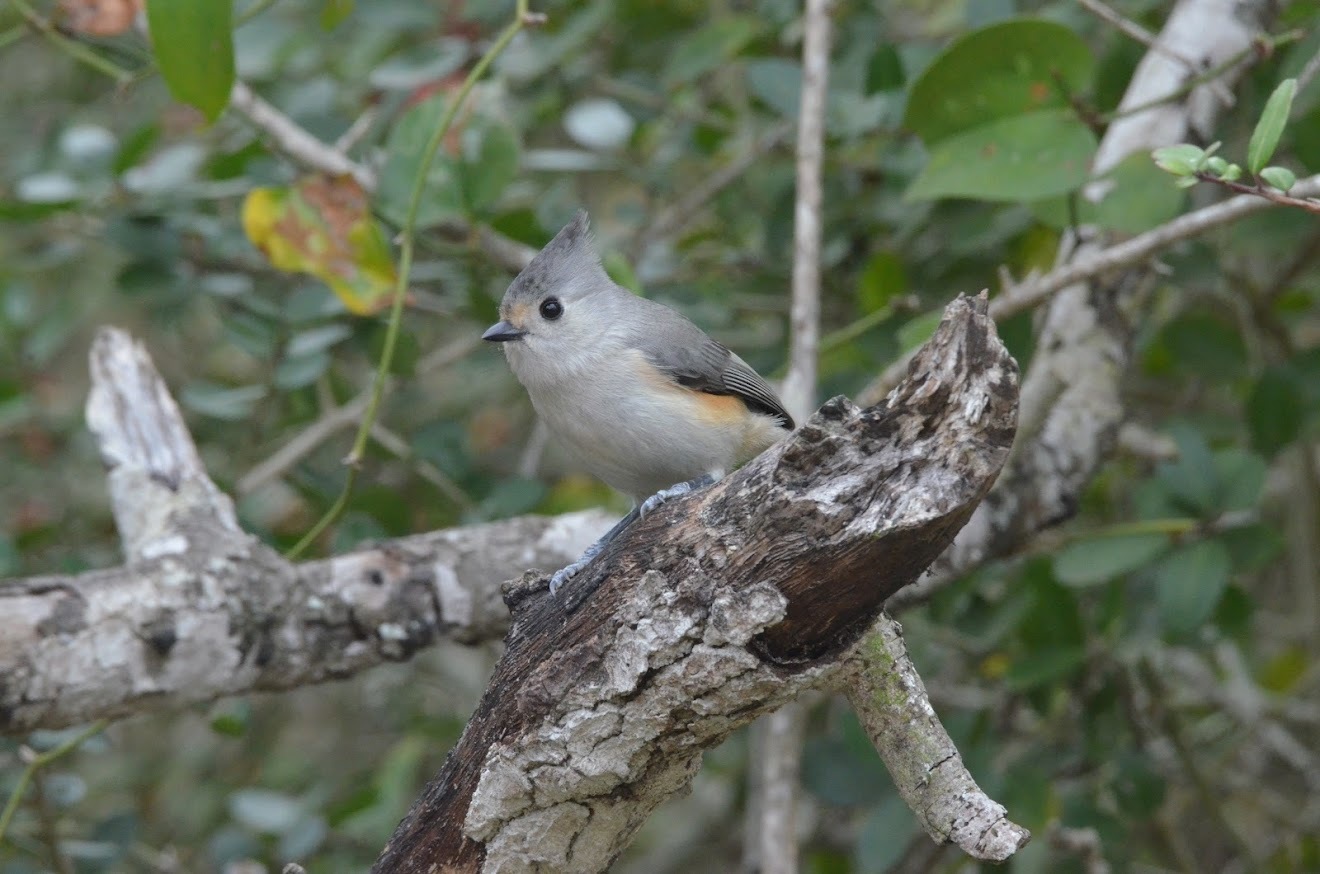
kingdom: Animalia
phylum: Chordata
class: Aves
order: Passeriformes
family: Paridae
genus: Baeolophus
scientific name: Baeolophus
